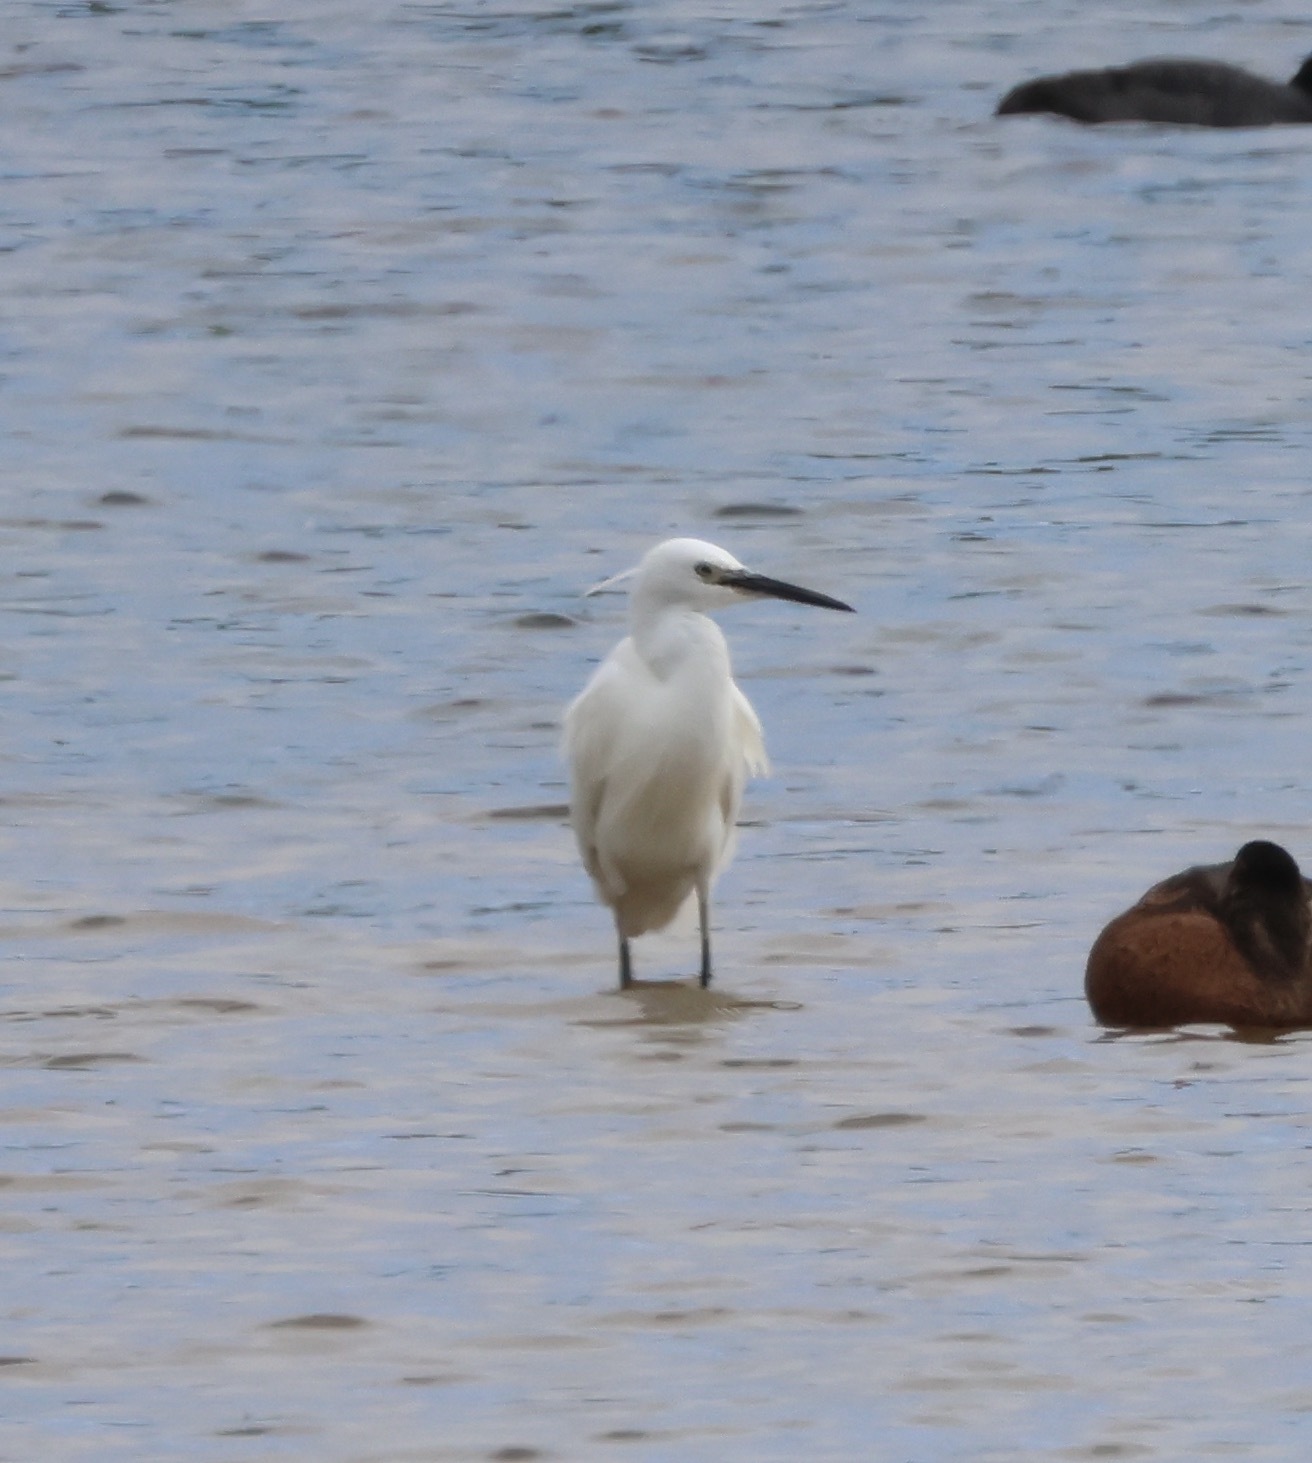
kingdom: Animalia
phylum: Chordata
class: Aves
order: Pelecaniformes
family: Ardeidae
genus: Egretta
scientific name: Egretta garzetta
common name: Little egret
